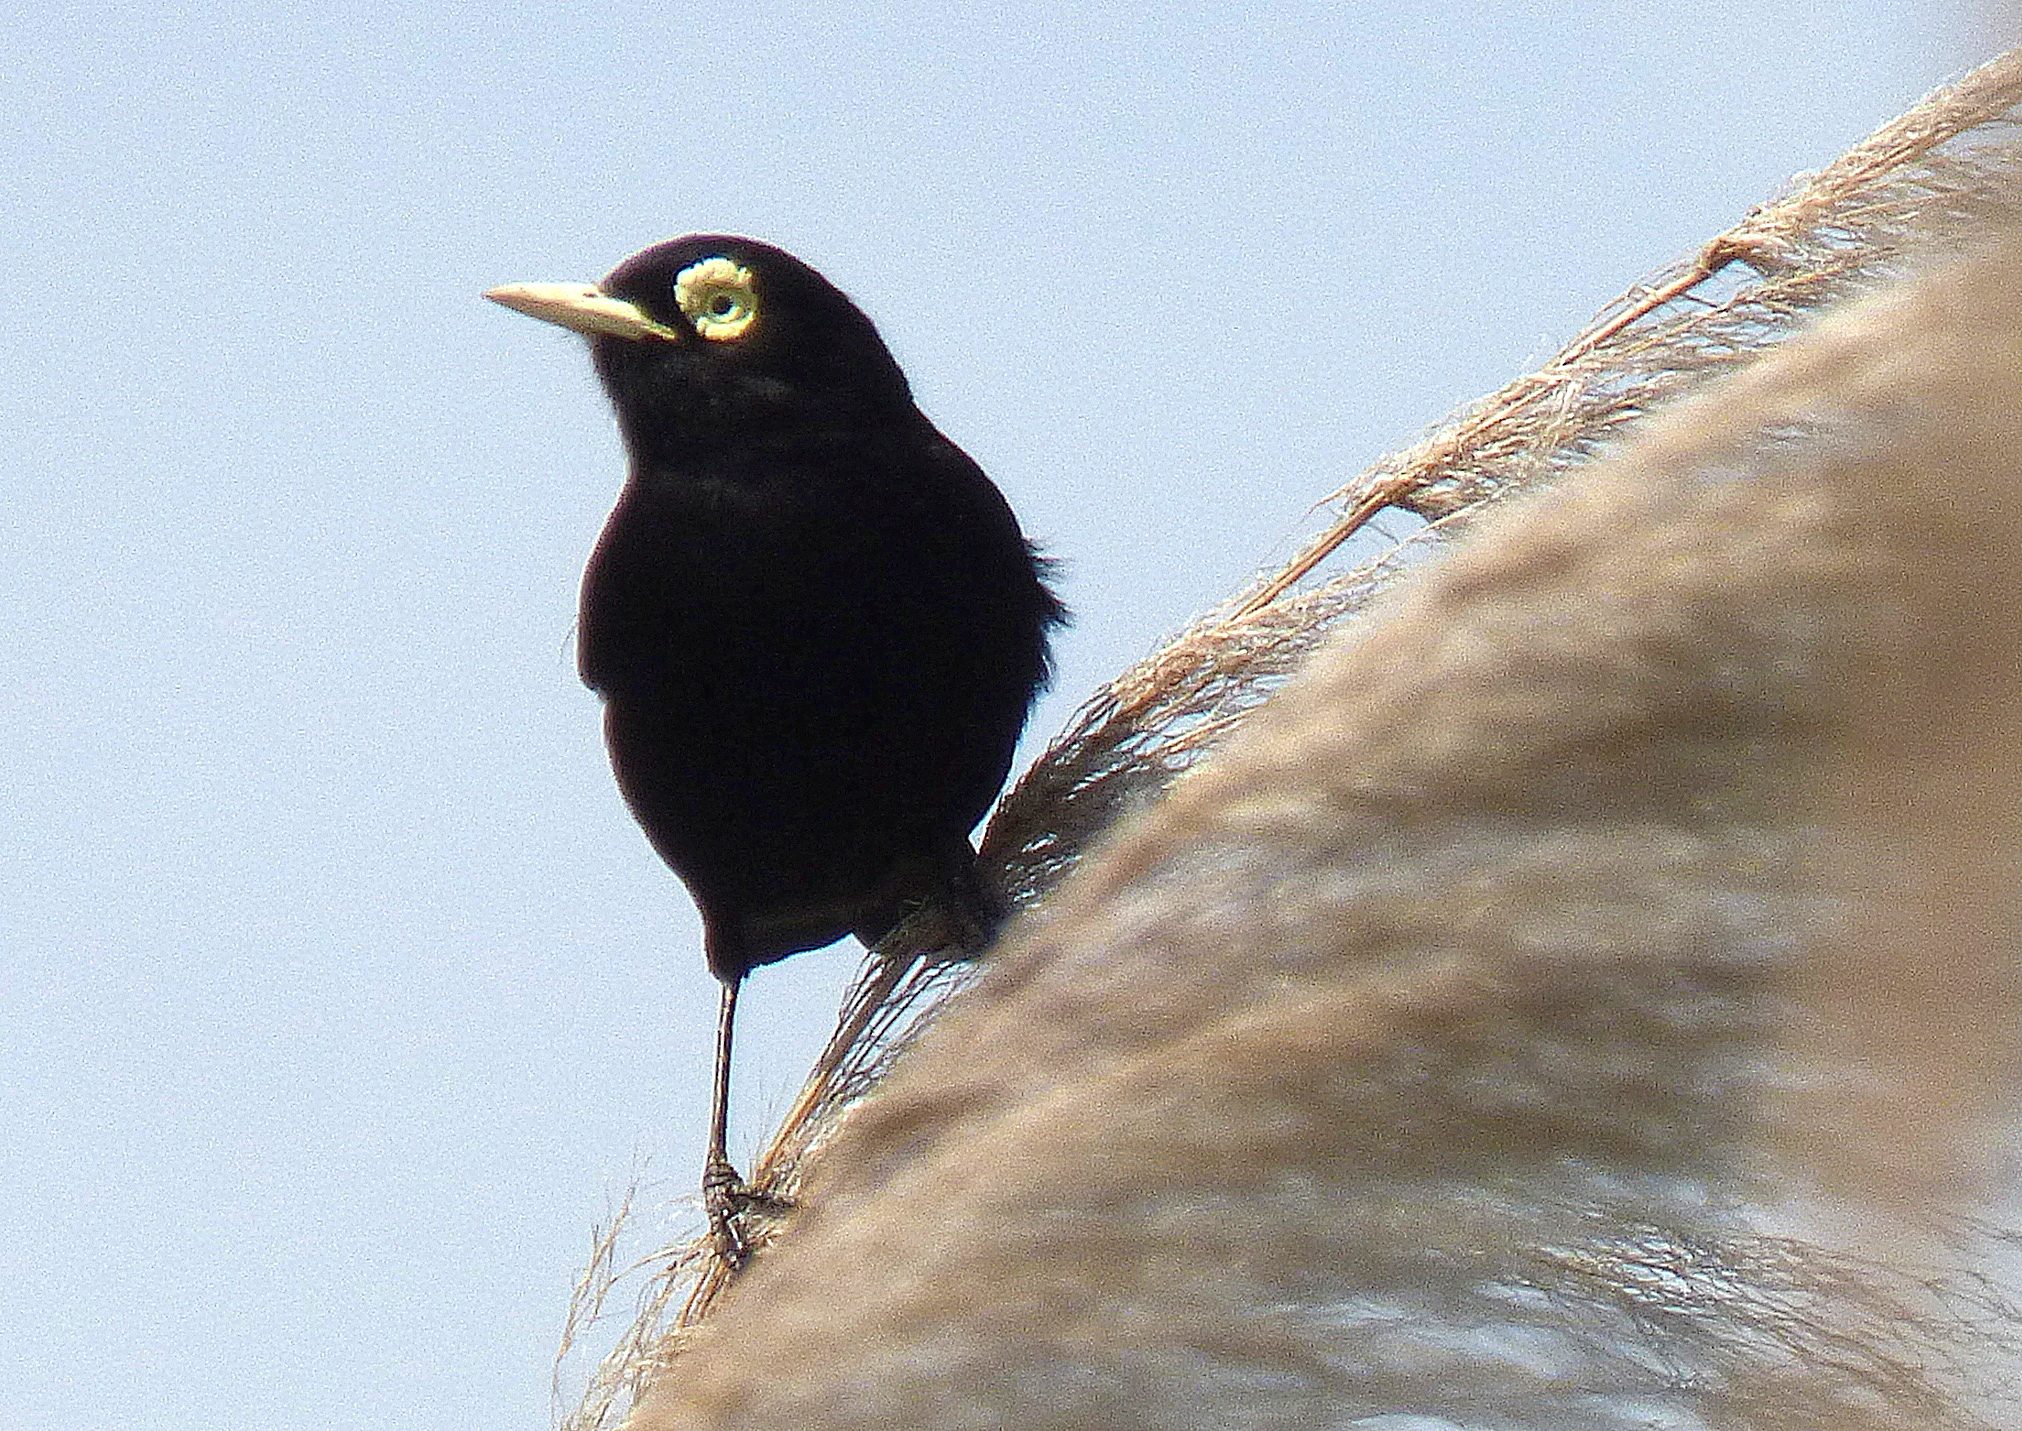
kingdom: Animalia
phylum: Chordata
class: Aves
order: Passeriformes
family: Tyrannidae
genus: Hymenops
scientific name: Hymenops perspicillatus
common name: Spectacled tyrant
